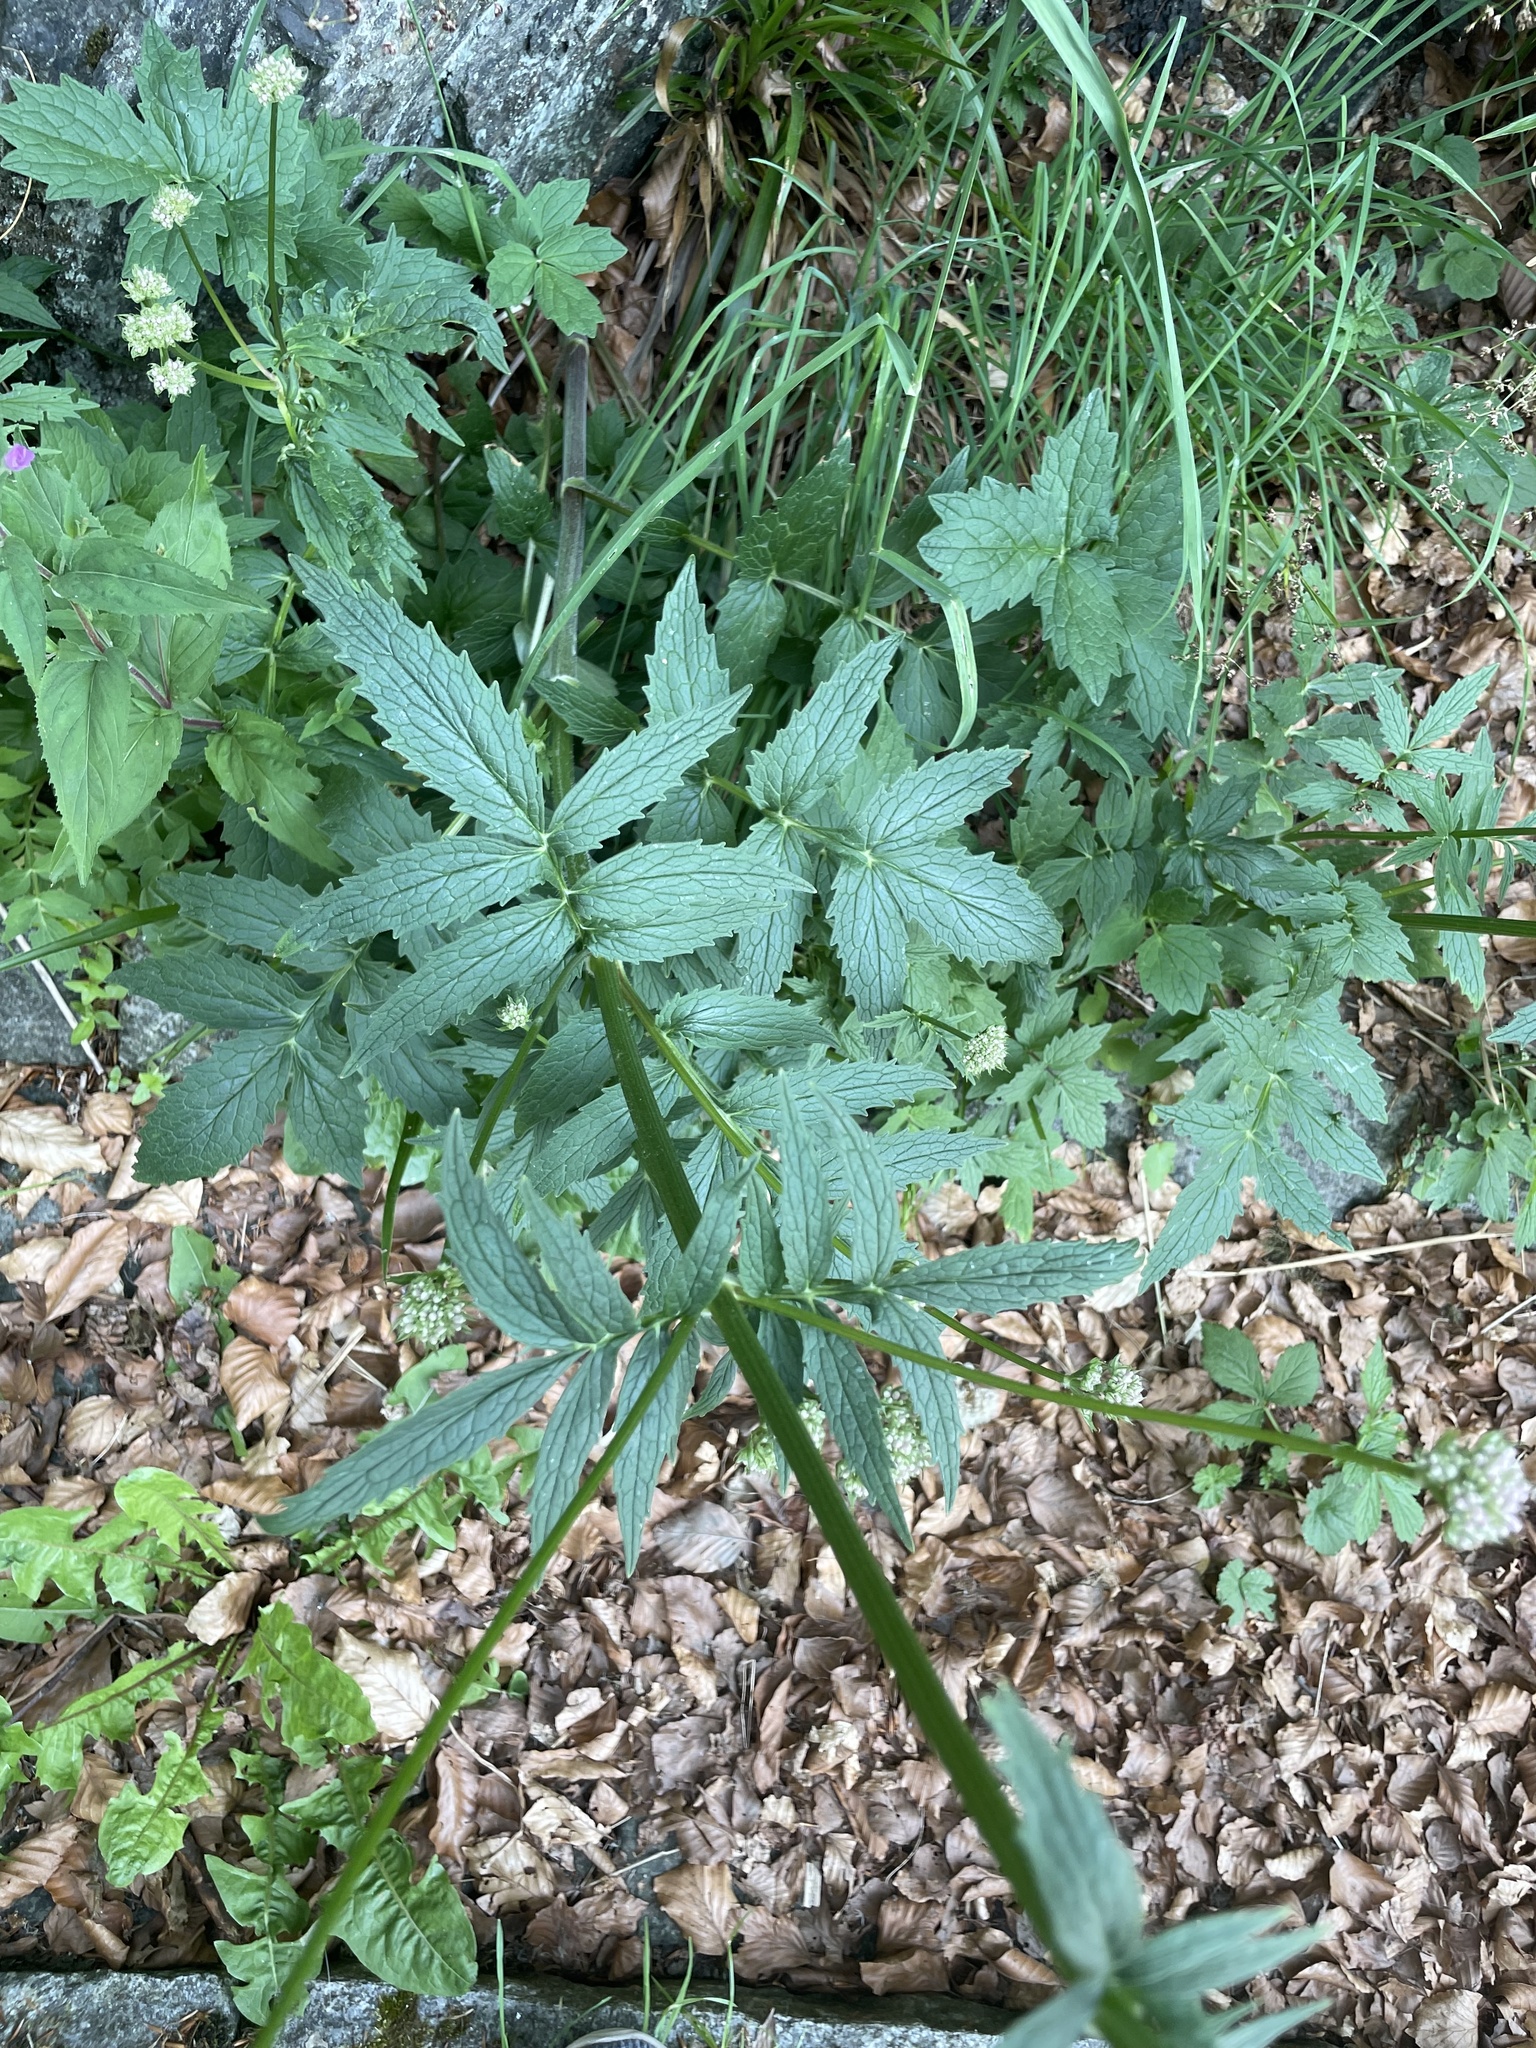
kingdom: Plantae
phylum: Tracheophyta
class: Magnoliopsida
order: Dipsacales
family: Caprifoliaceae
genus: Valeriana
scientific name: Valeriana sambucifolia
